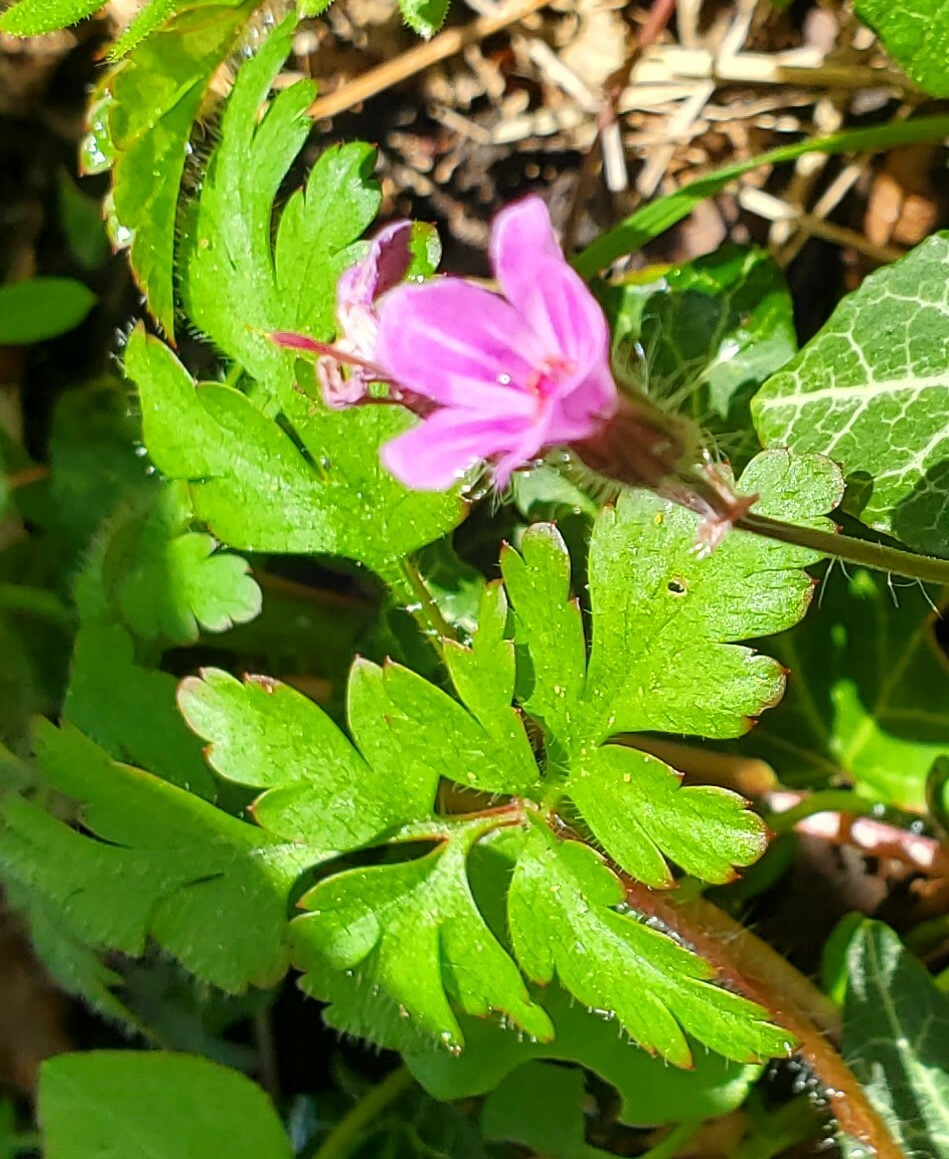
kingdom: Plantae
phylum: Tracheophyta
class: Magnoliopsida
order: Geraniales
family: Geraniaceae
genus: Geranium
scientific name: Geranium robertianum
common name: Herb-robert
